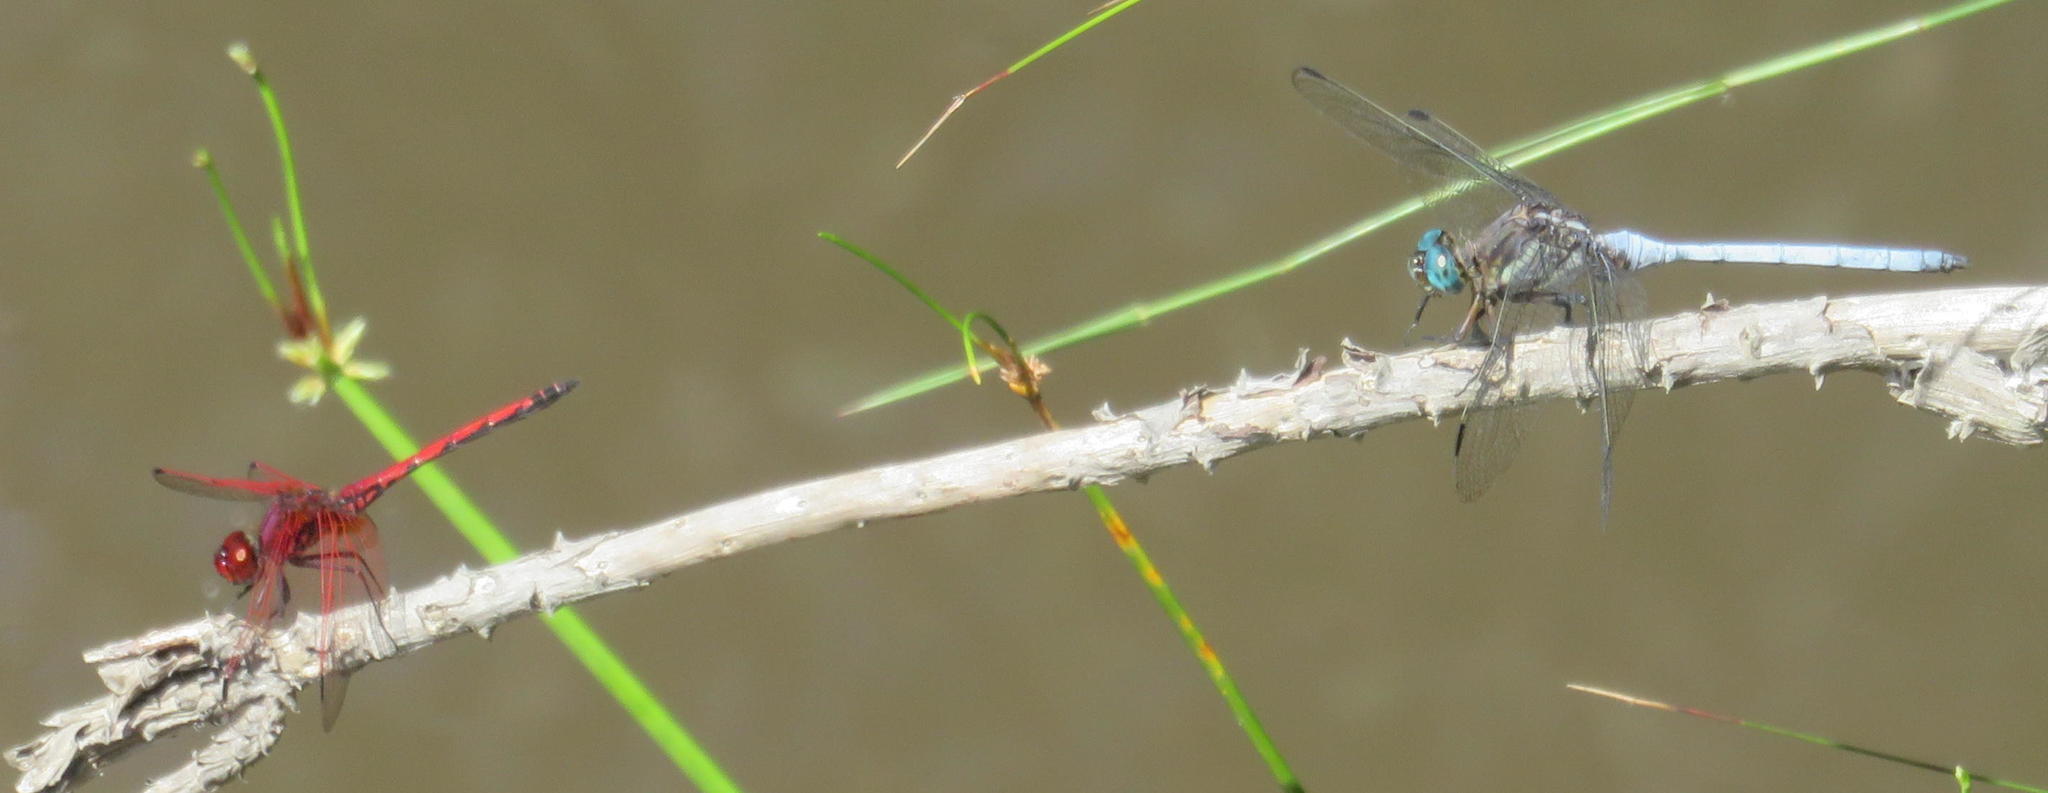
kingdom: Animalia
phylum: Arthropoda
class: Insecta
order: Odonata
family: Libellulidae
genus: Trithemis
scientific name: Trithemis arteriosa
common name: Red-veined dropwing
